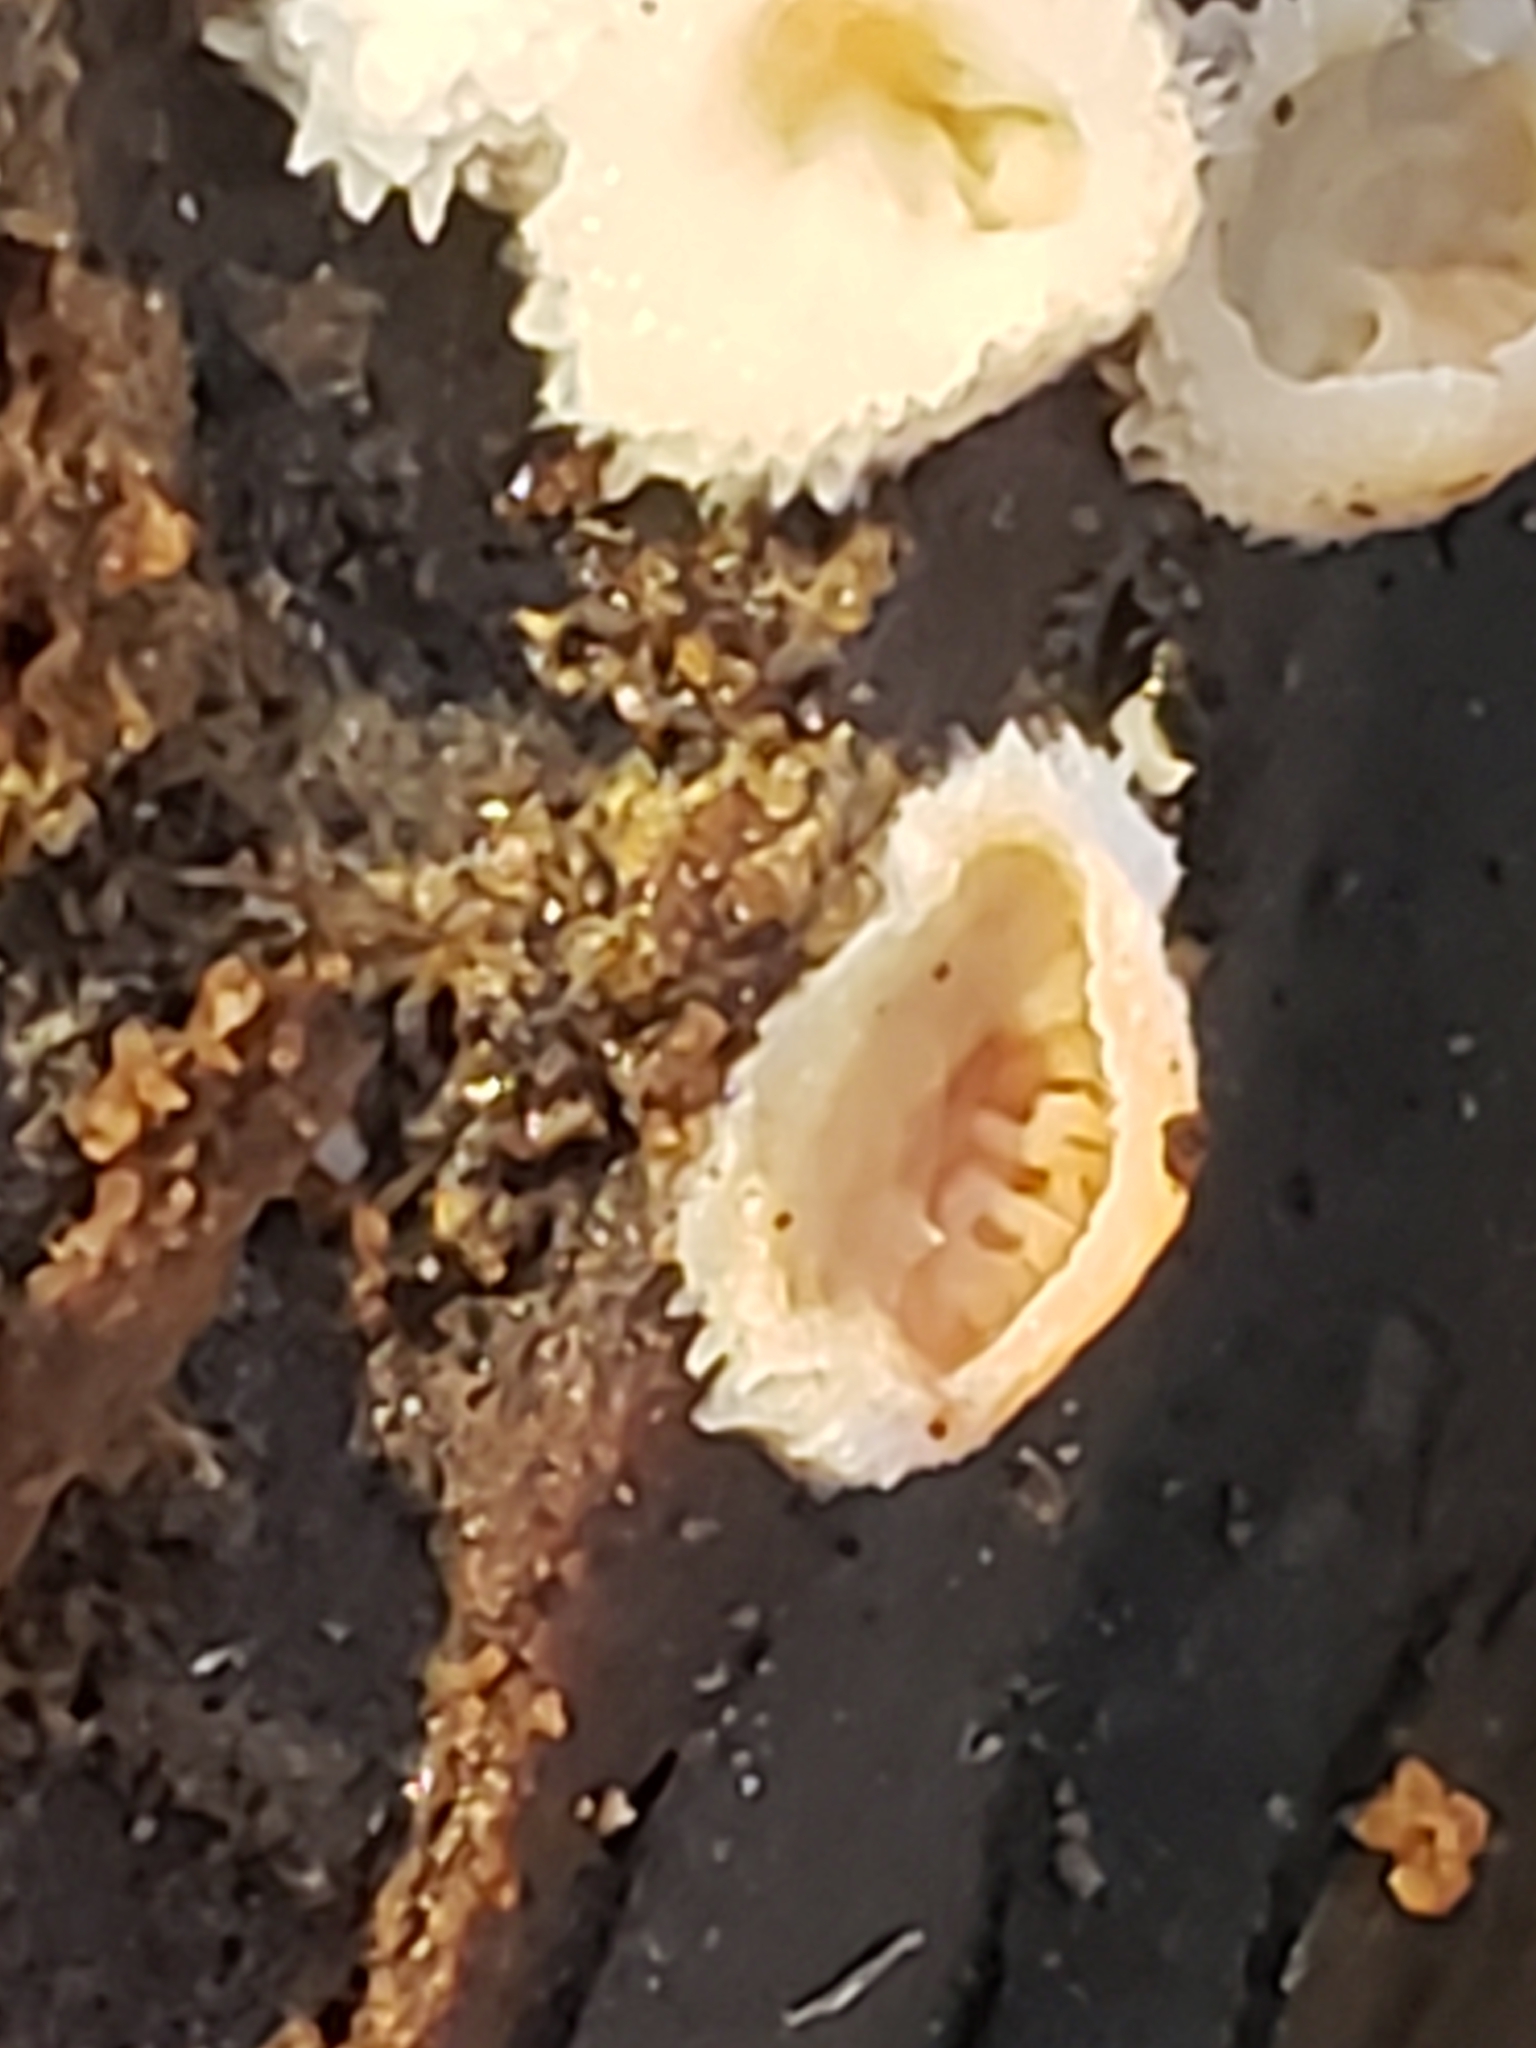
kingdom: Fungi
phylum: Basidiomycota
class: Agaricomycetes
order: Polyporales
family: Meruliaceae
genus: Phlebia
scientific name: Phlebia tremellosa
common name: Jelly rot
